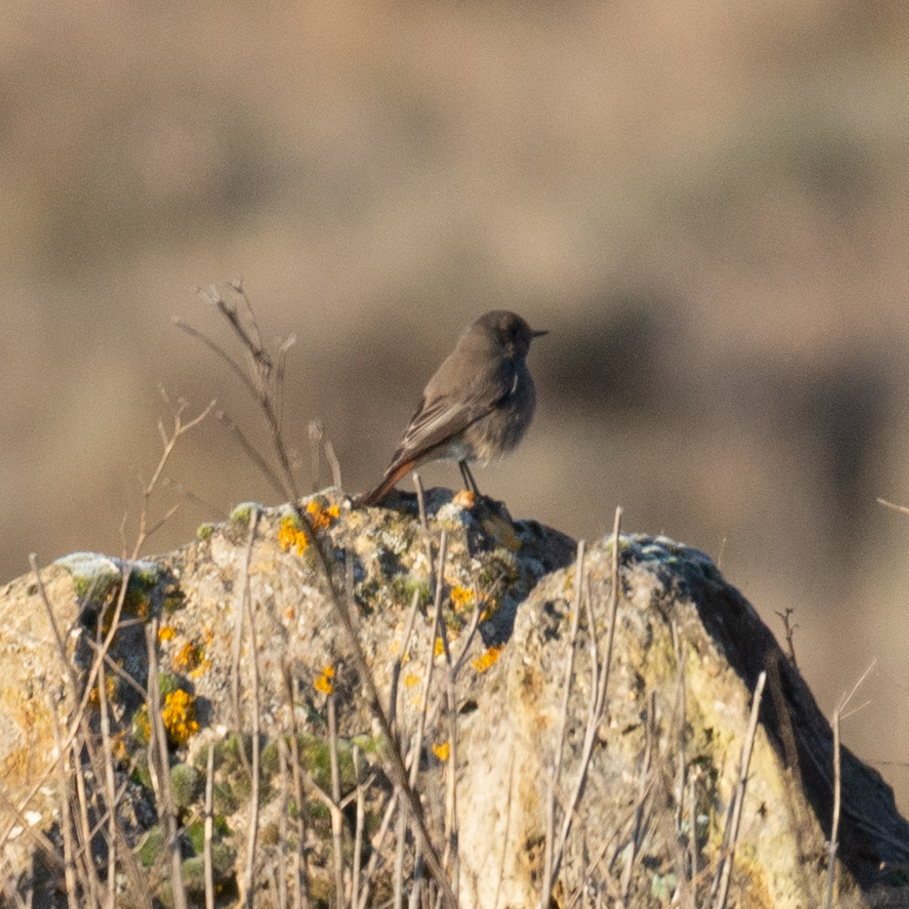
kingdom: Animalia
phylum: Chordata
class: Aves
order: Passeriformes
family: Muscicapidae
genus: Phoenicurus
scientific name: Phoenicurus ochruros
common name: Black redstart
